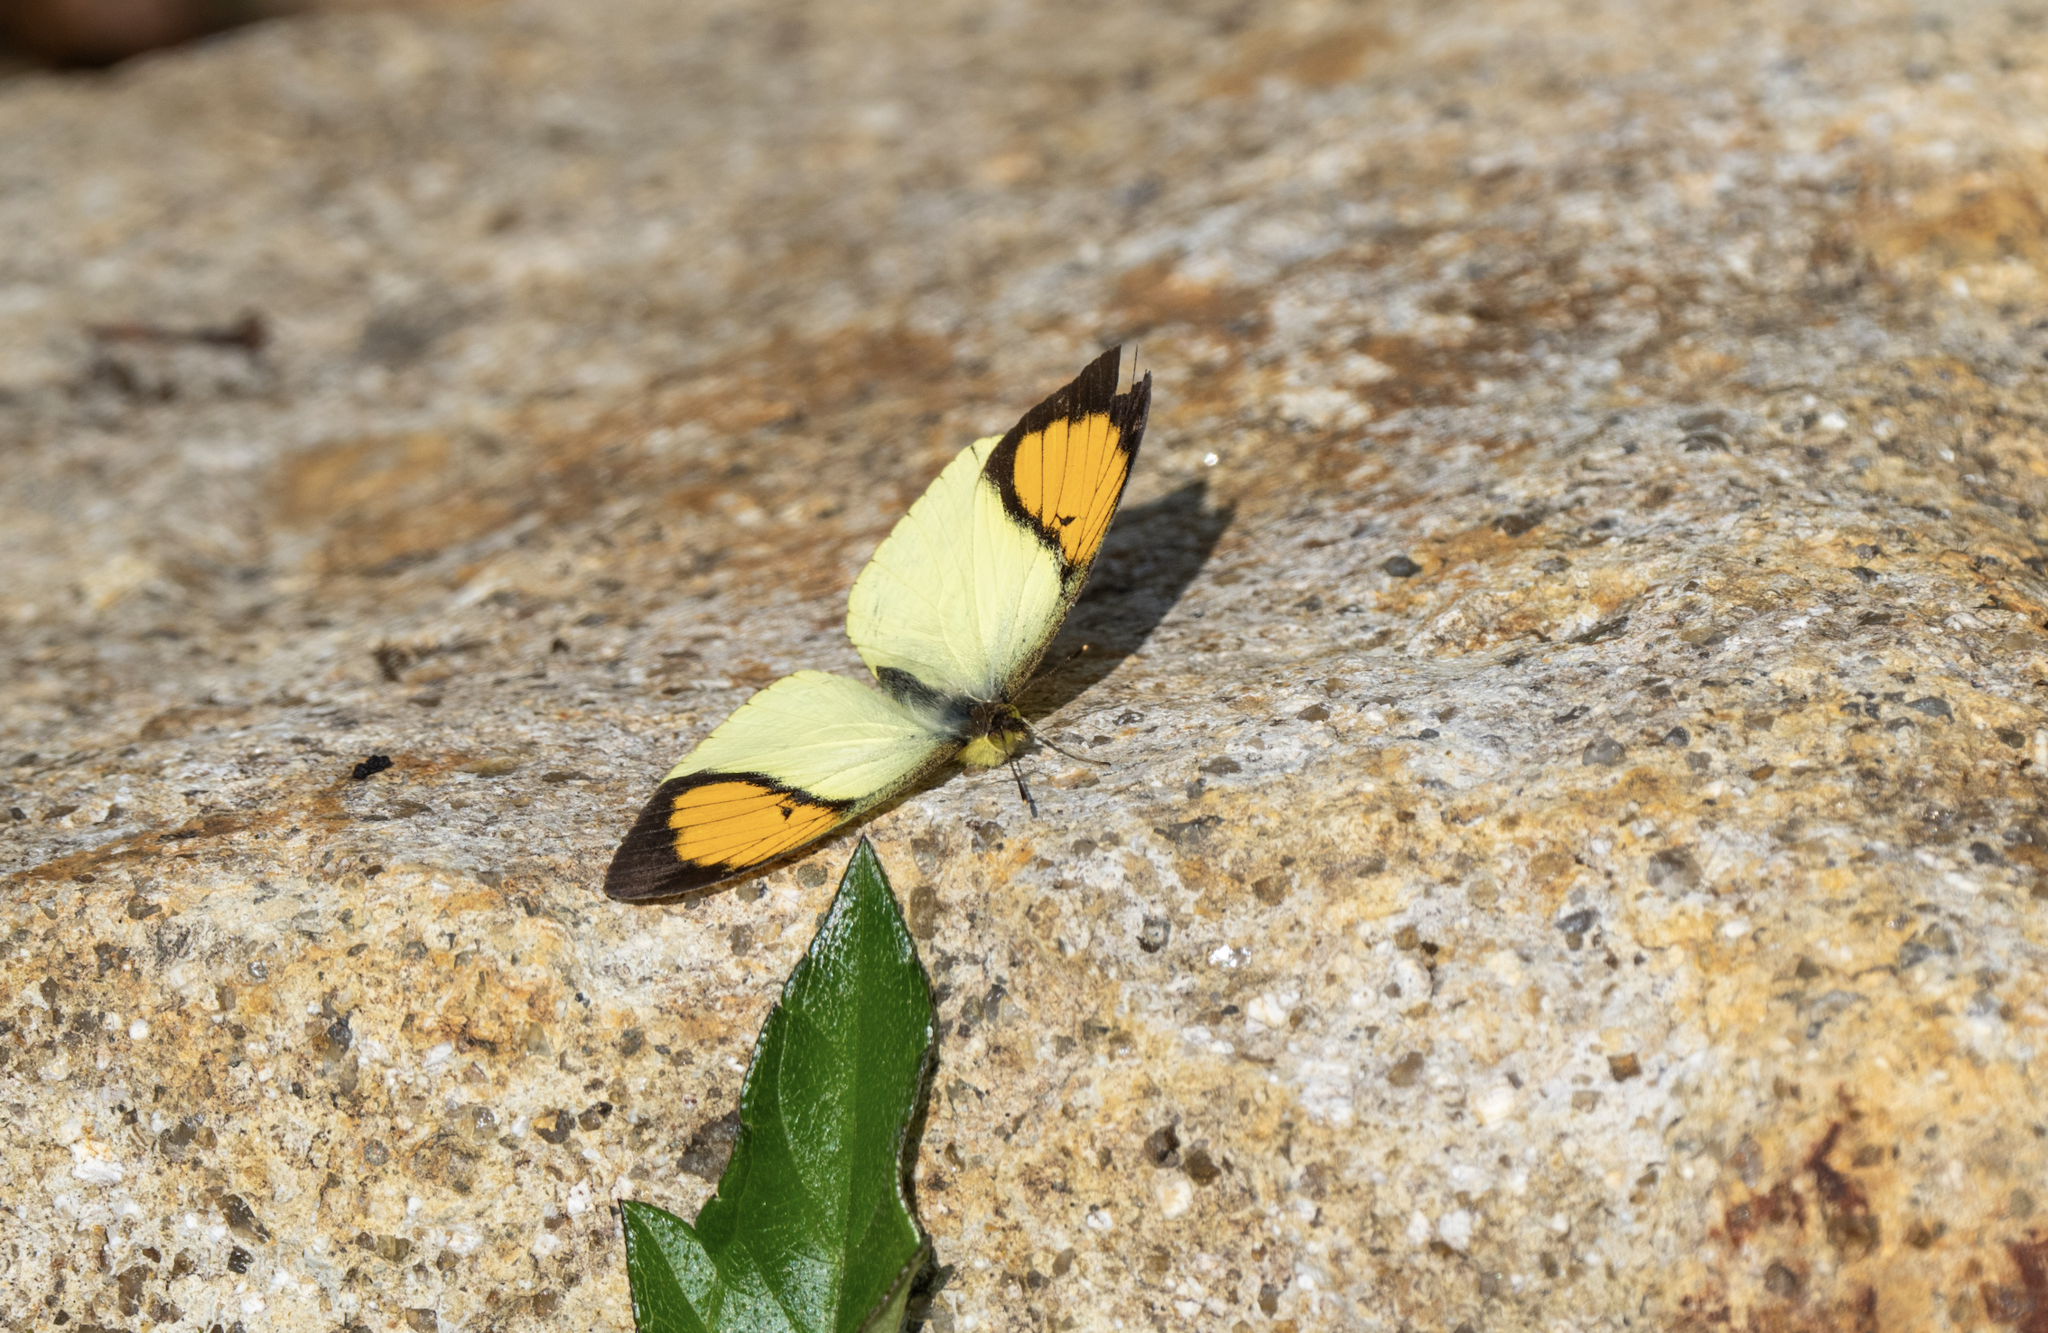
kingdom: Animalia
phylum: Arthropoda
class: Insecta
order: Lepidoptera
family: Pieridae
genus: Ixias
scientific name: Ixias pyrene
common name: Yellow orange tip
